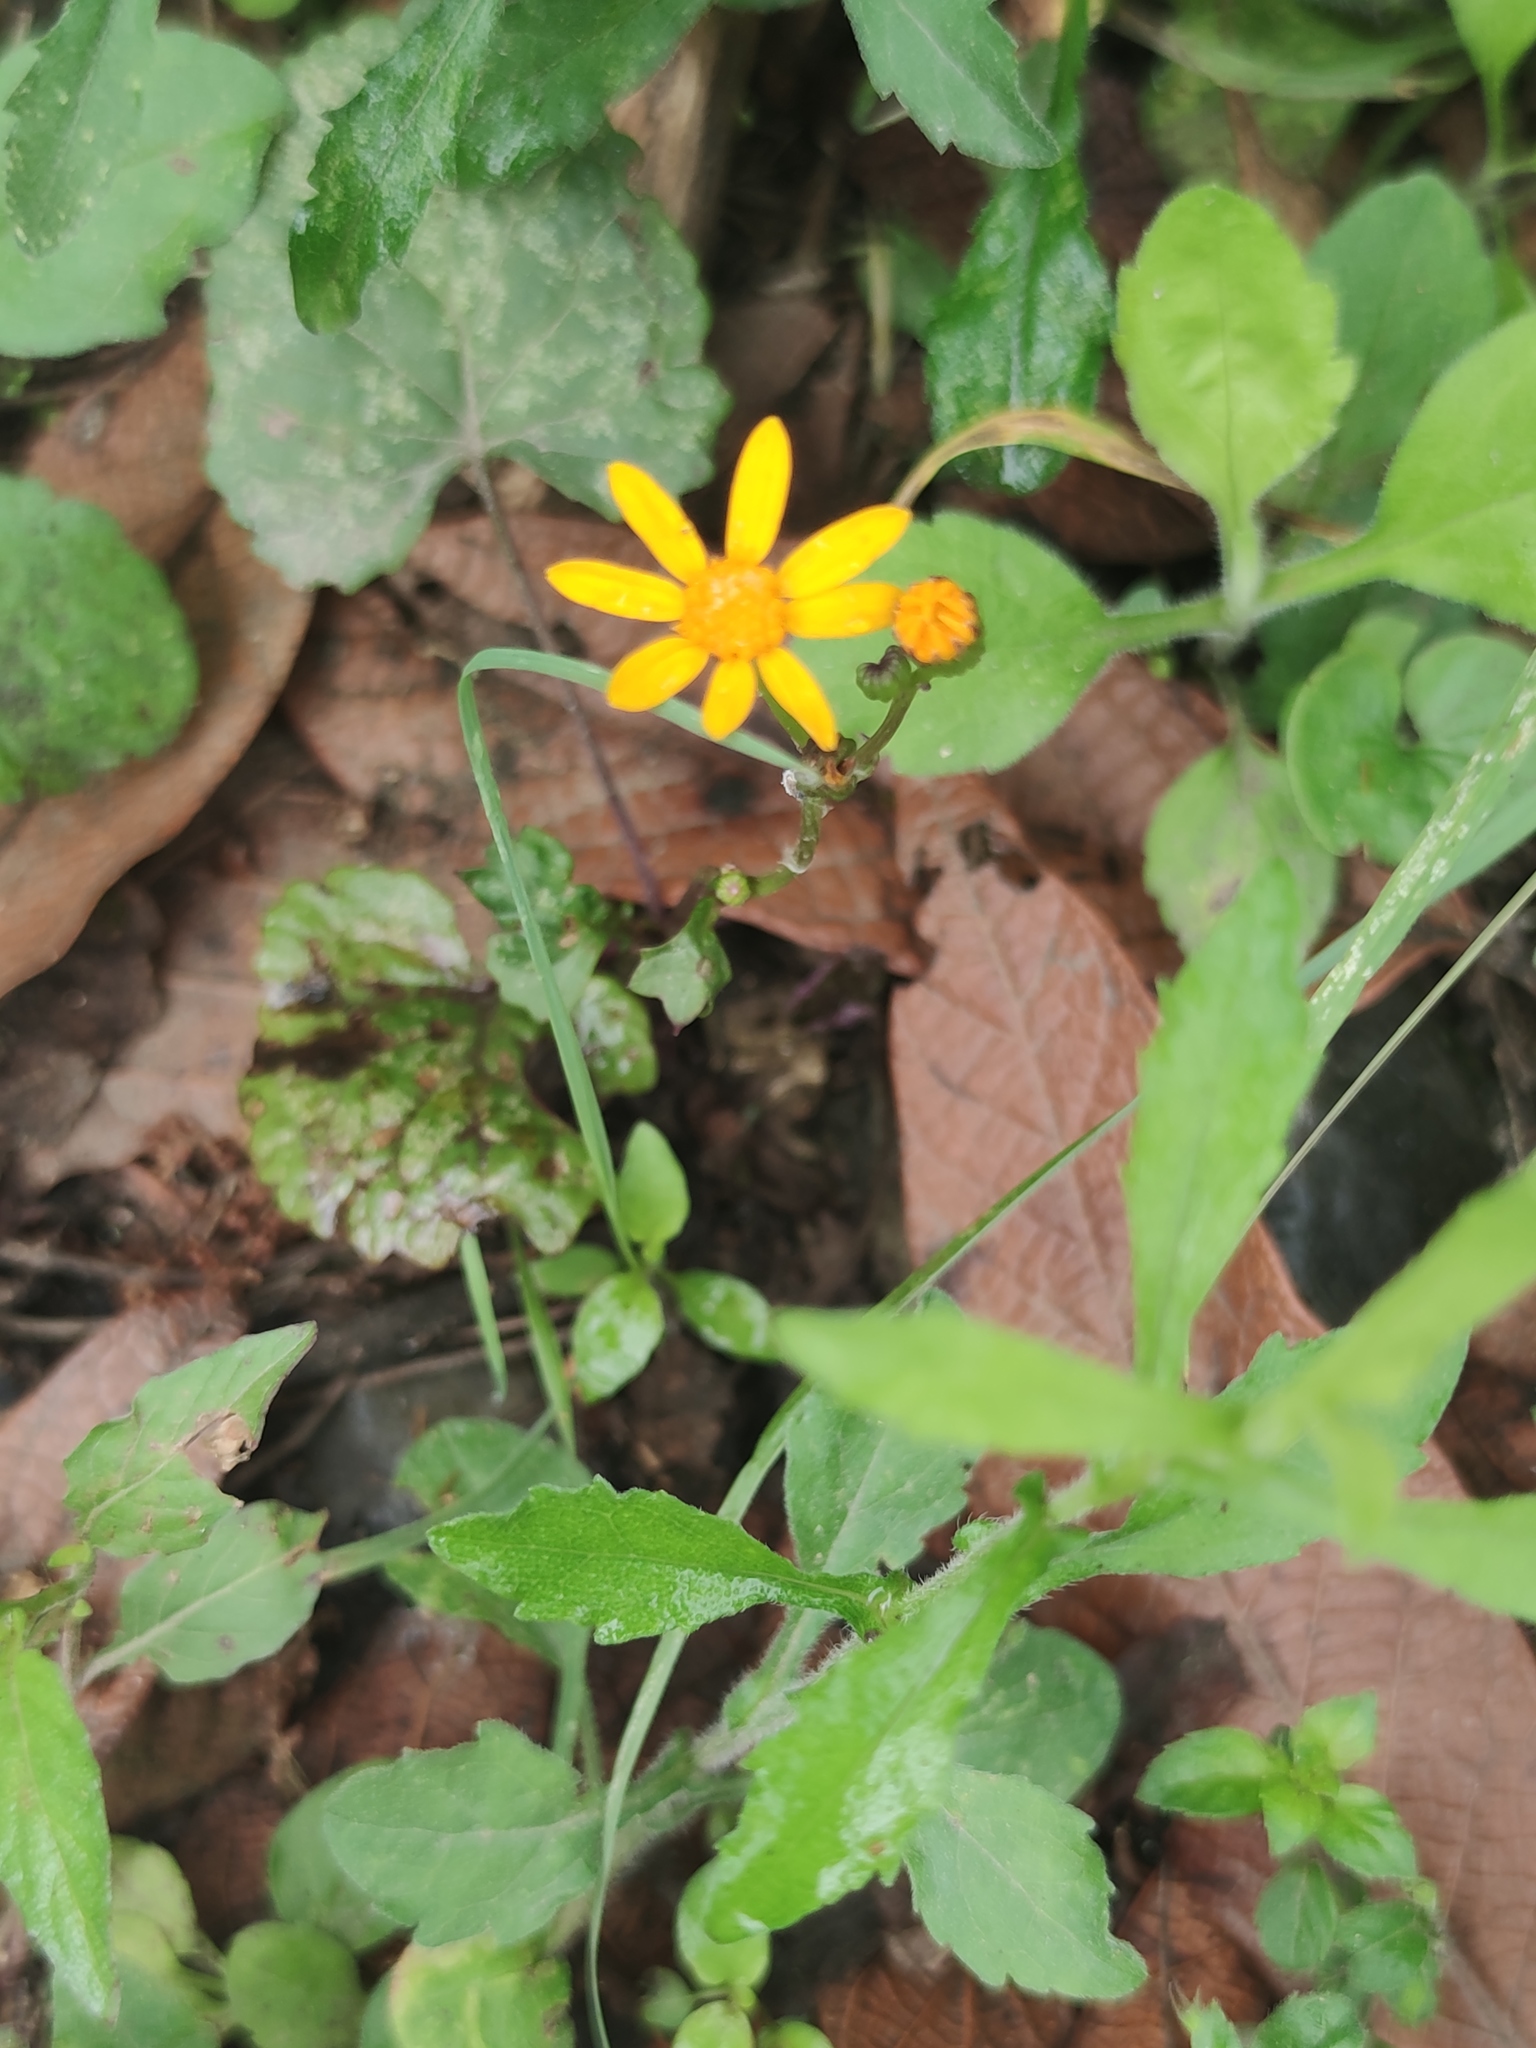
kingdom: Plantae
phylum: Tracheophyta
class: Magnoliopsida
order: Asterales
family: Asteraceae
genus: Packera
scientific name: Packera coahuilensis
